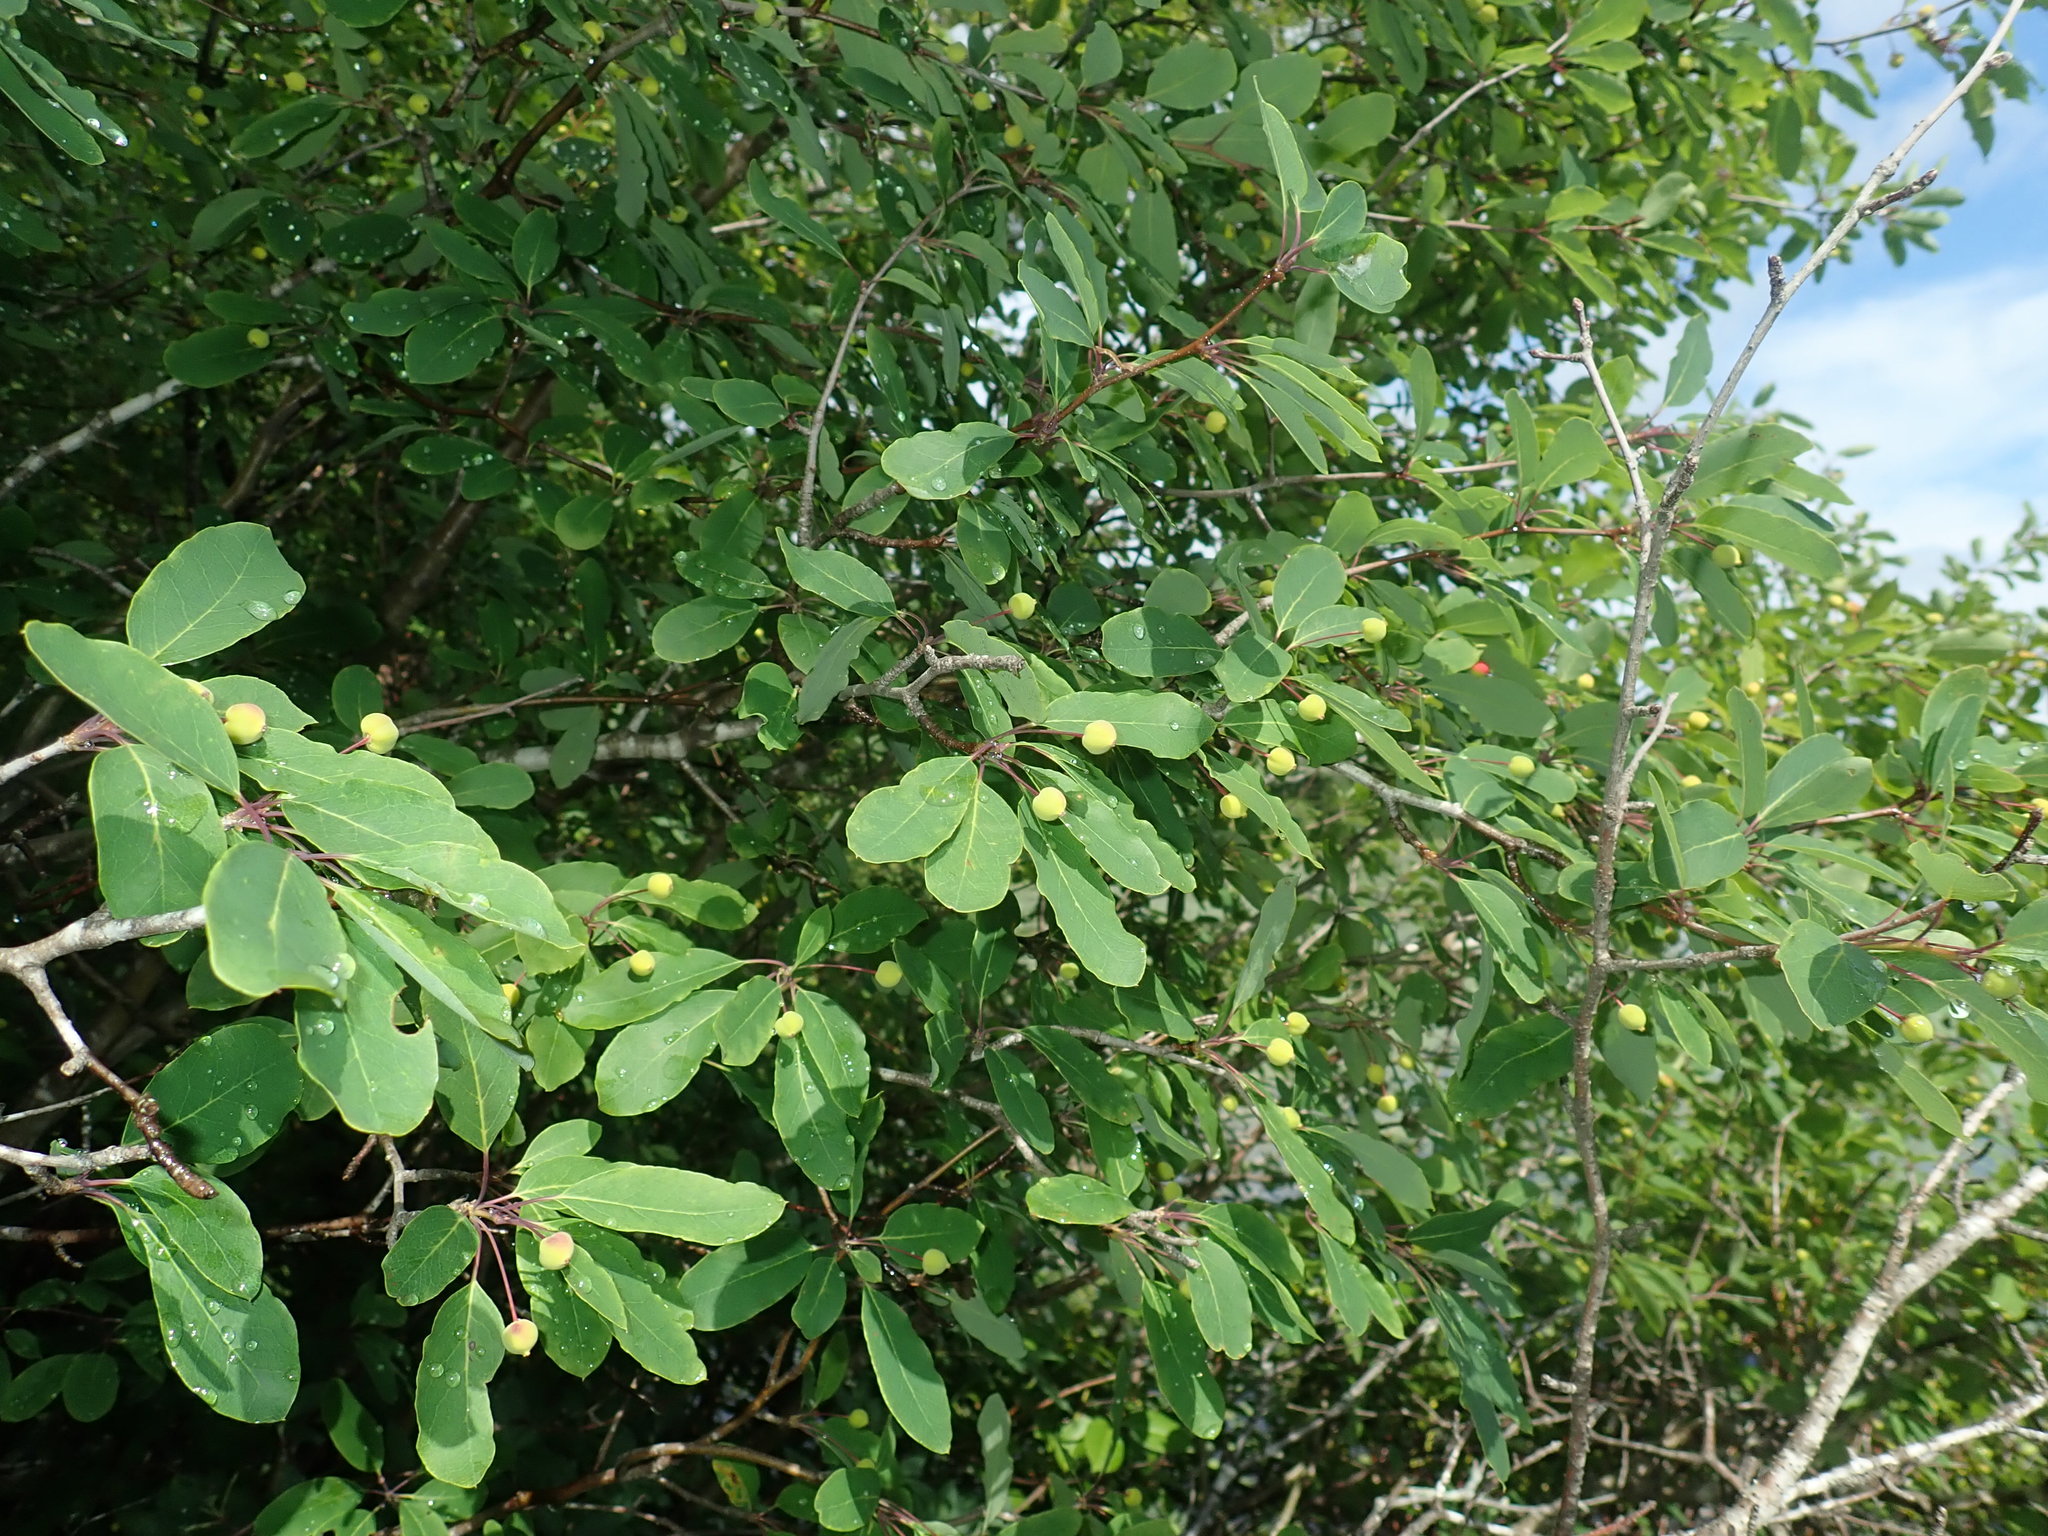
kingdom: Plantae
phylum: Tracheophyta
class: Magnoliopsida
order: Aquifoliales
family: Aquifoliaceae
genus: Ilex
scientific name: Ilex mucronata
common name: Catberry
